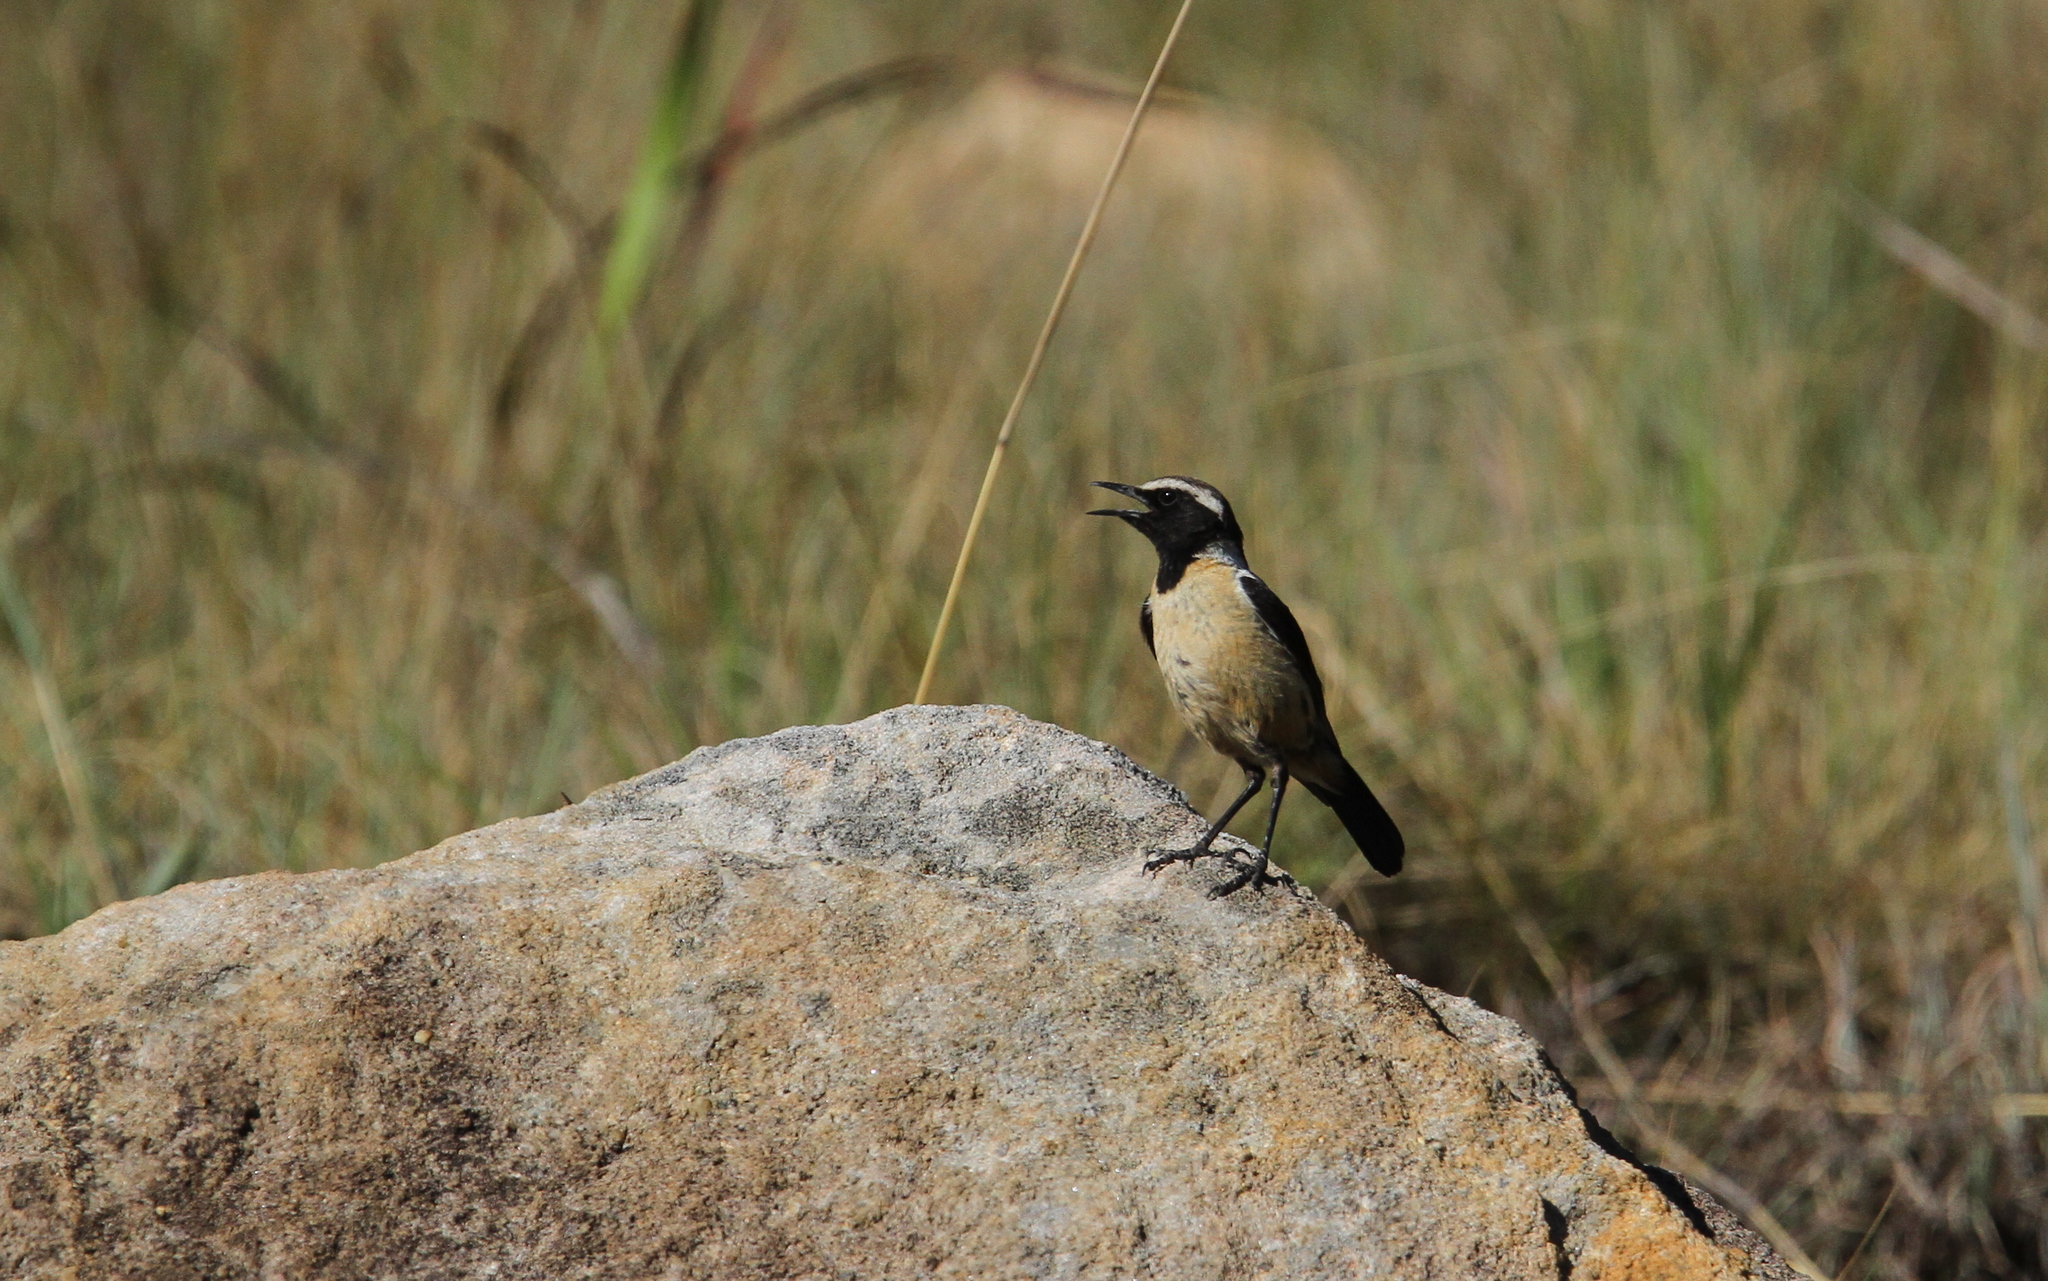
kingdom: Animalia
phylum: Chordata
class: Aves
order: Passeriformes
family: Muscicapidae
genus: Campicoloides
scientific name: Campicoloides bifasciatus
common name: Buff-streaked chat
